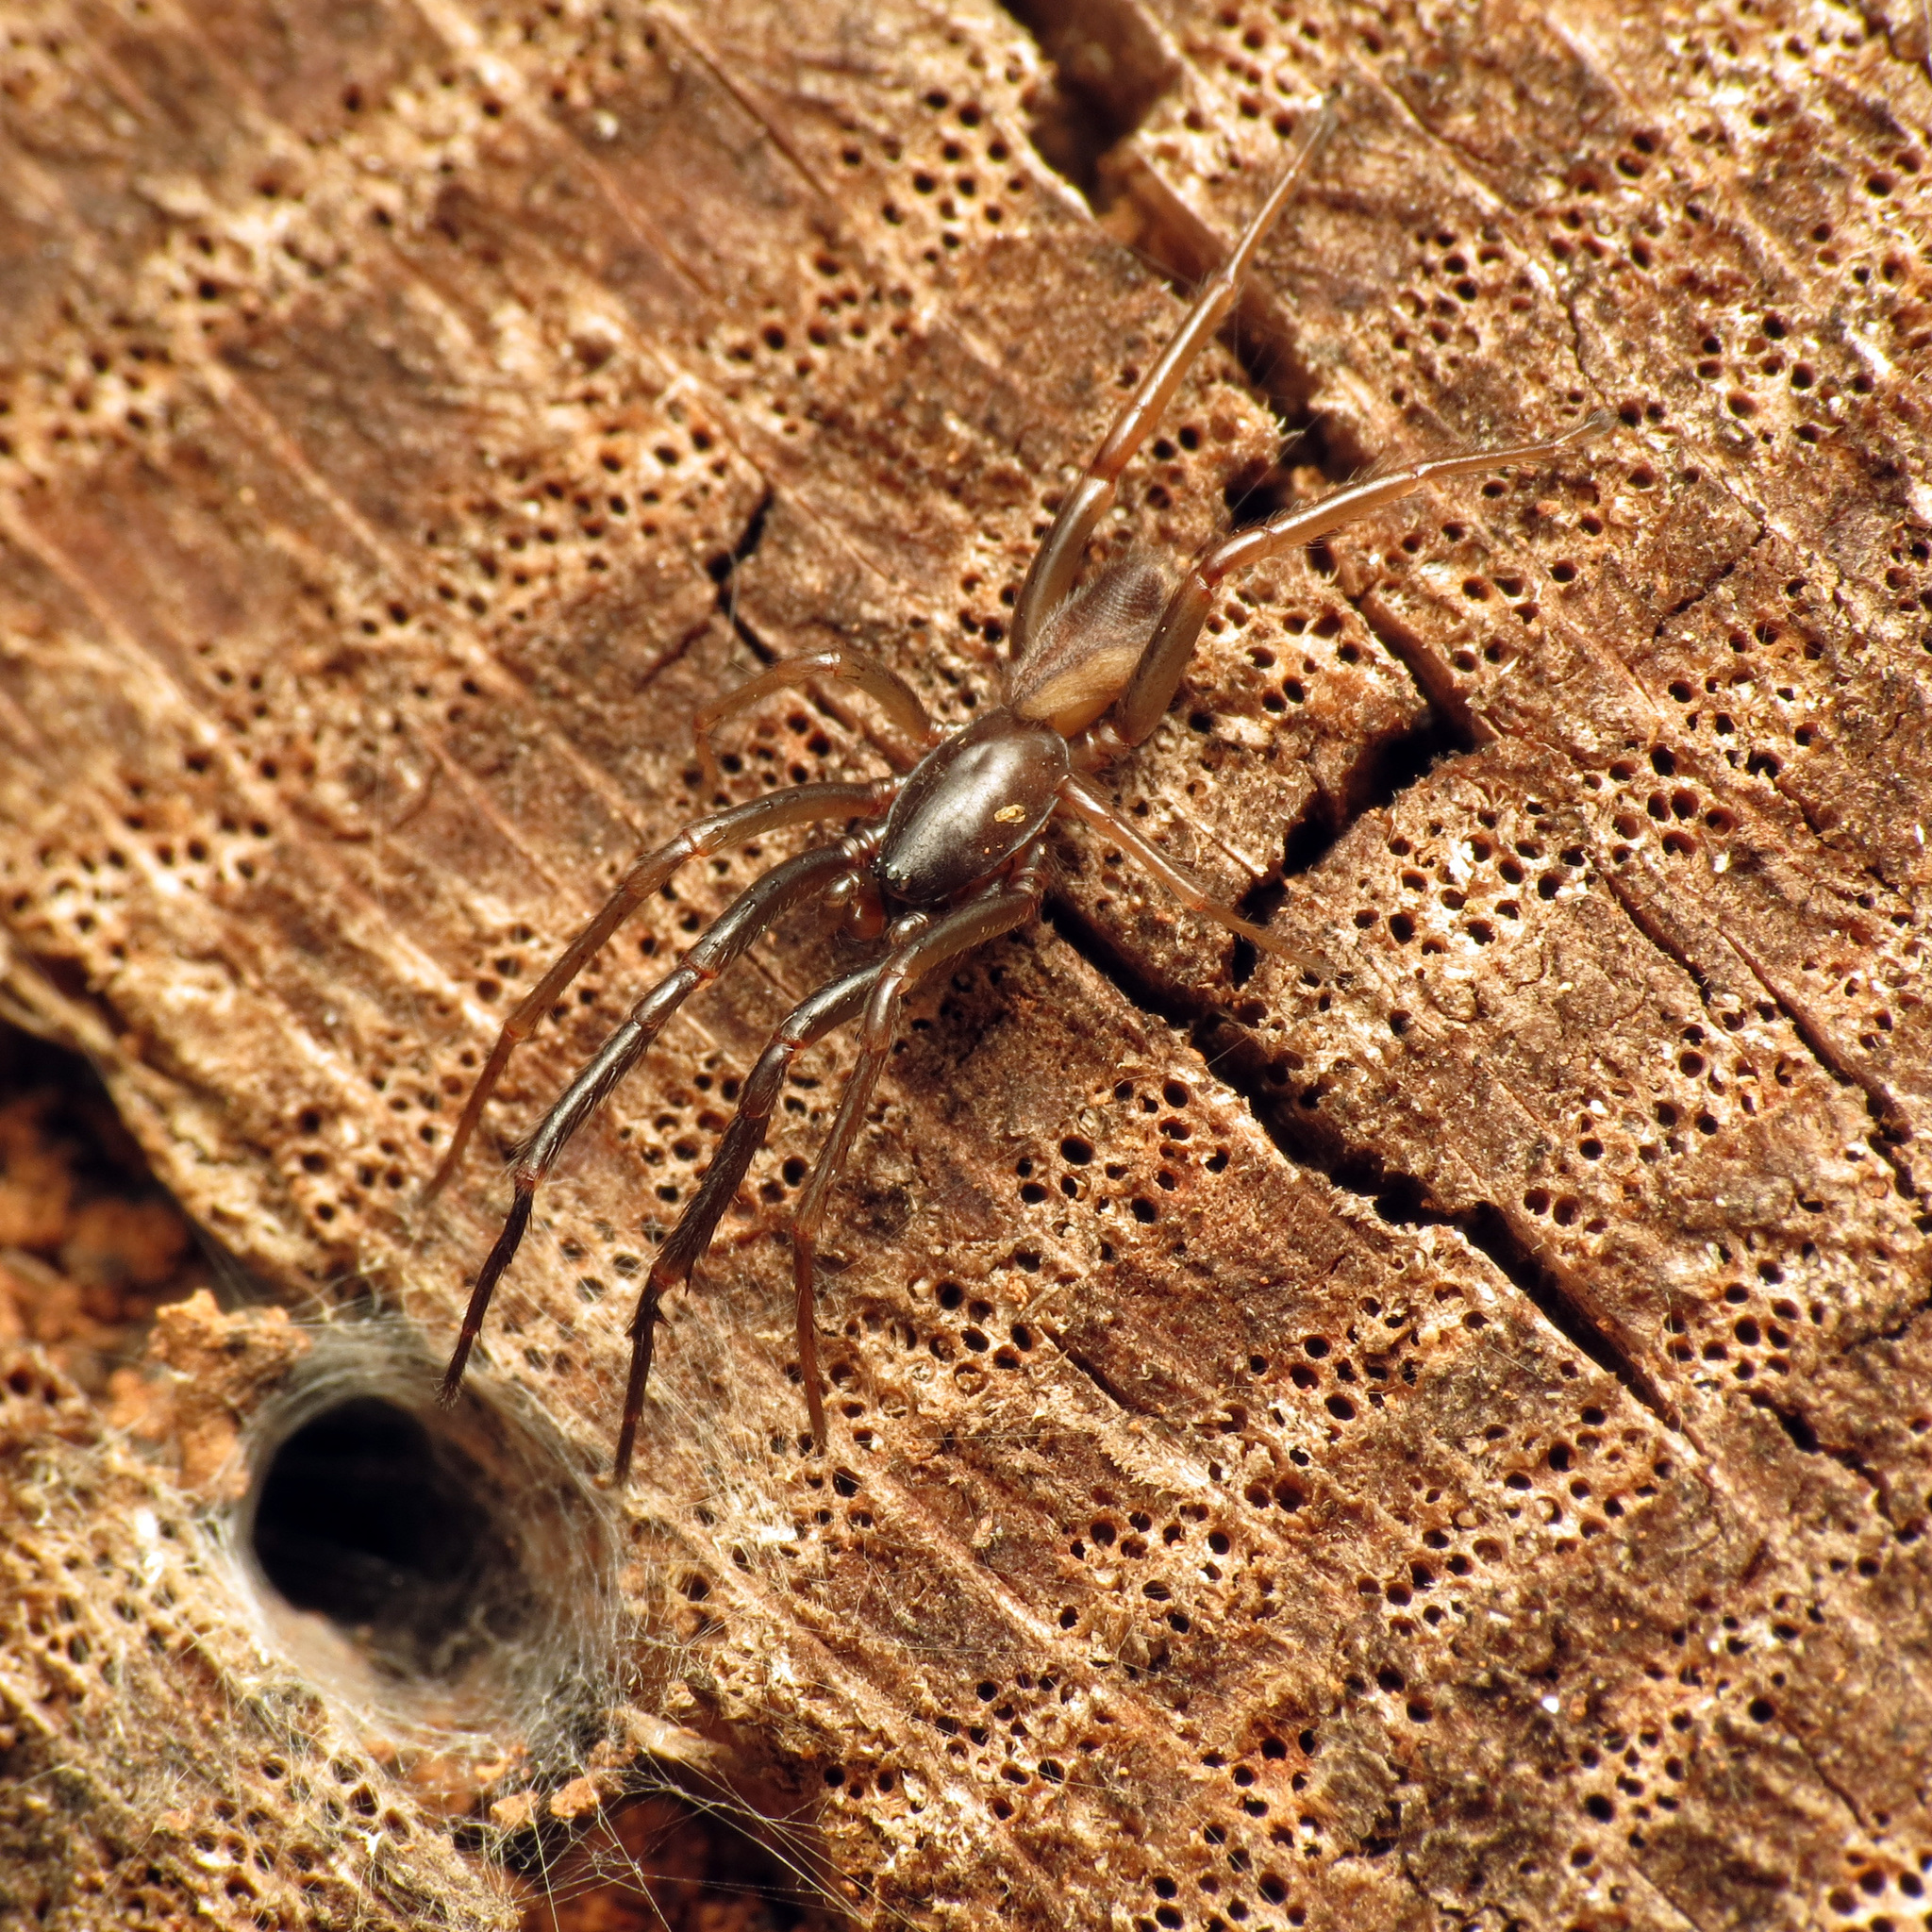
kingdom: Animalia
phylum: Arthropoda
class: Arachnida
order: Araneae
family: Segestriidae
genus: Ariadna
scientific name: Ariadna bicolor
